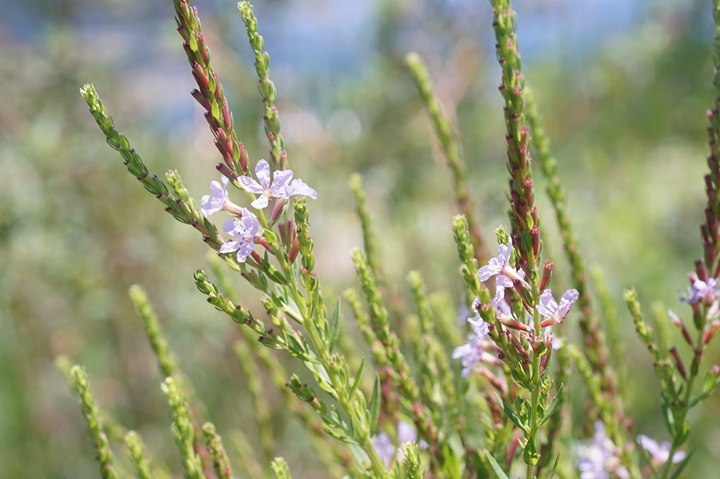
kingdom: Plantae
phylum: Tracheophyta
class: Magnoliopsida
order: Myrtales
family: Lythraceae
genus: Lythrum
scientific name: Lythrum alatum
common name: Winged loosestrife
